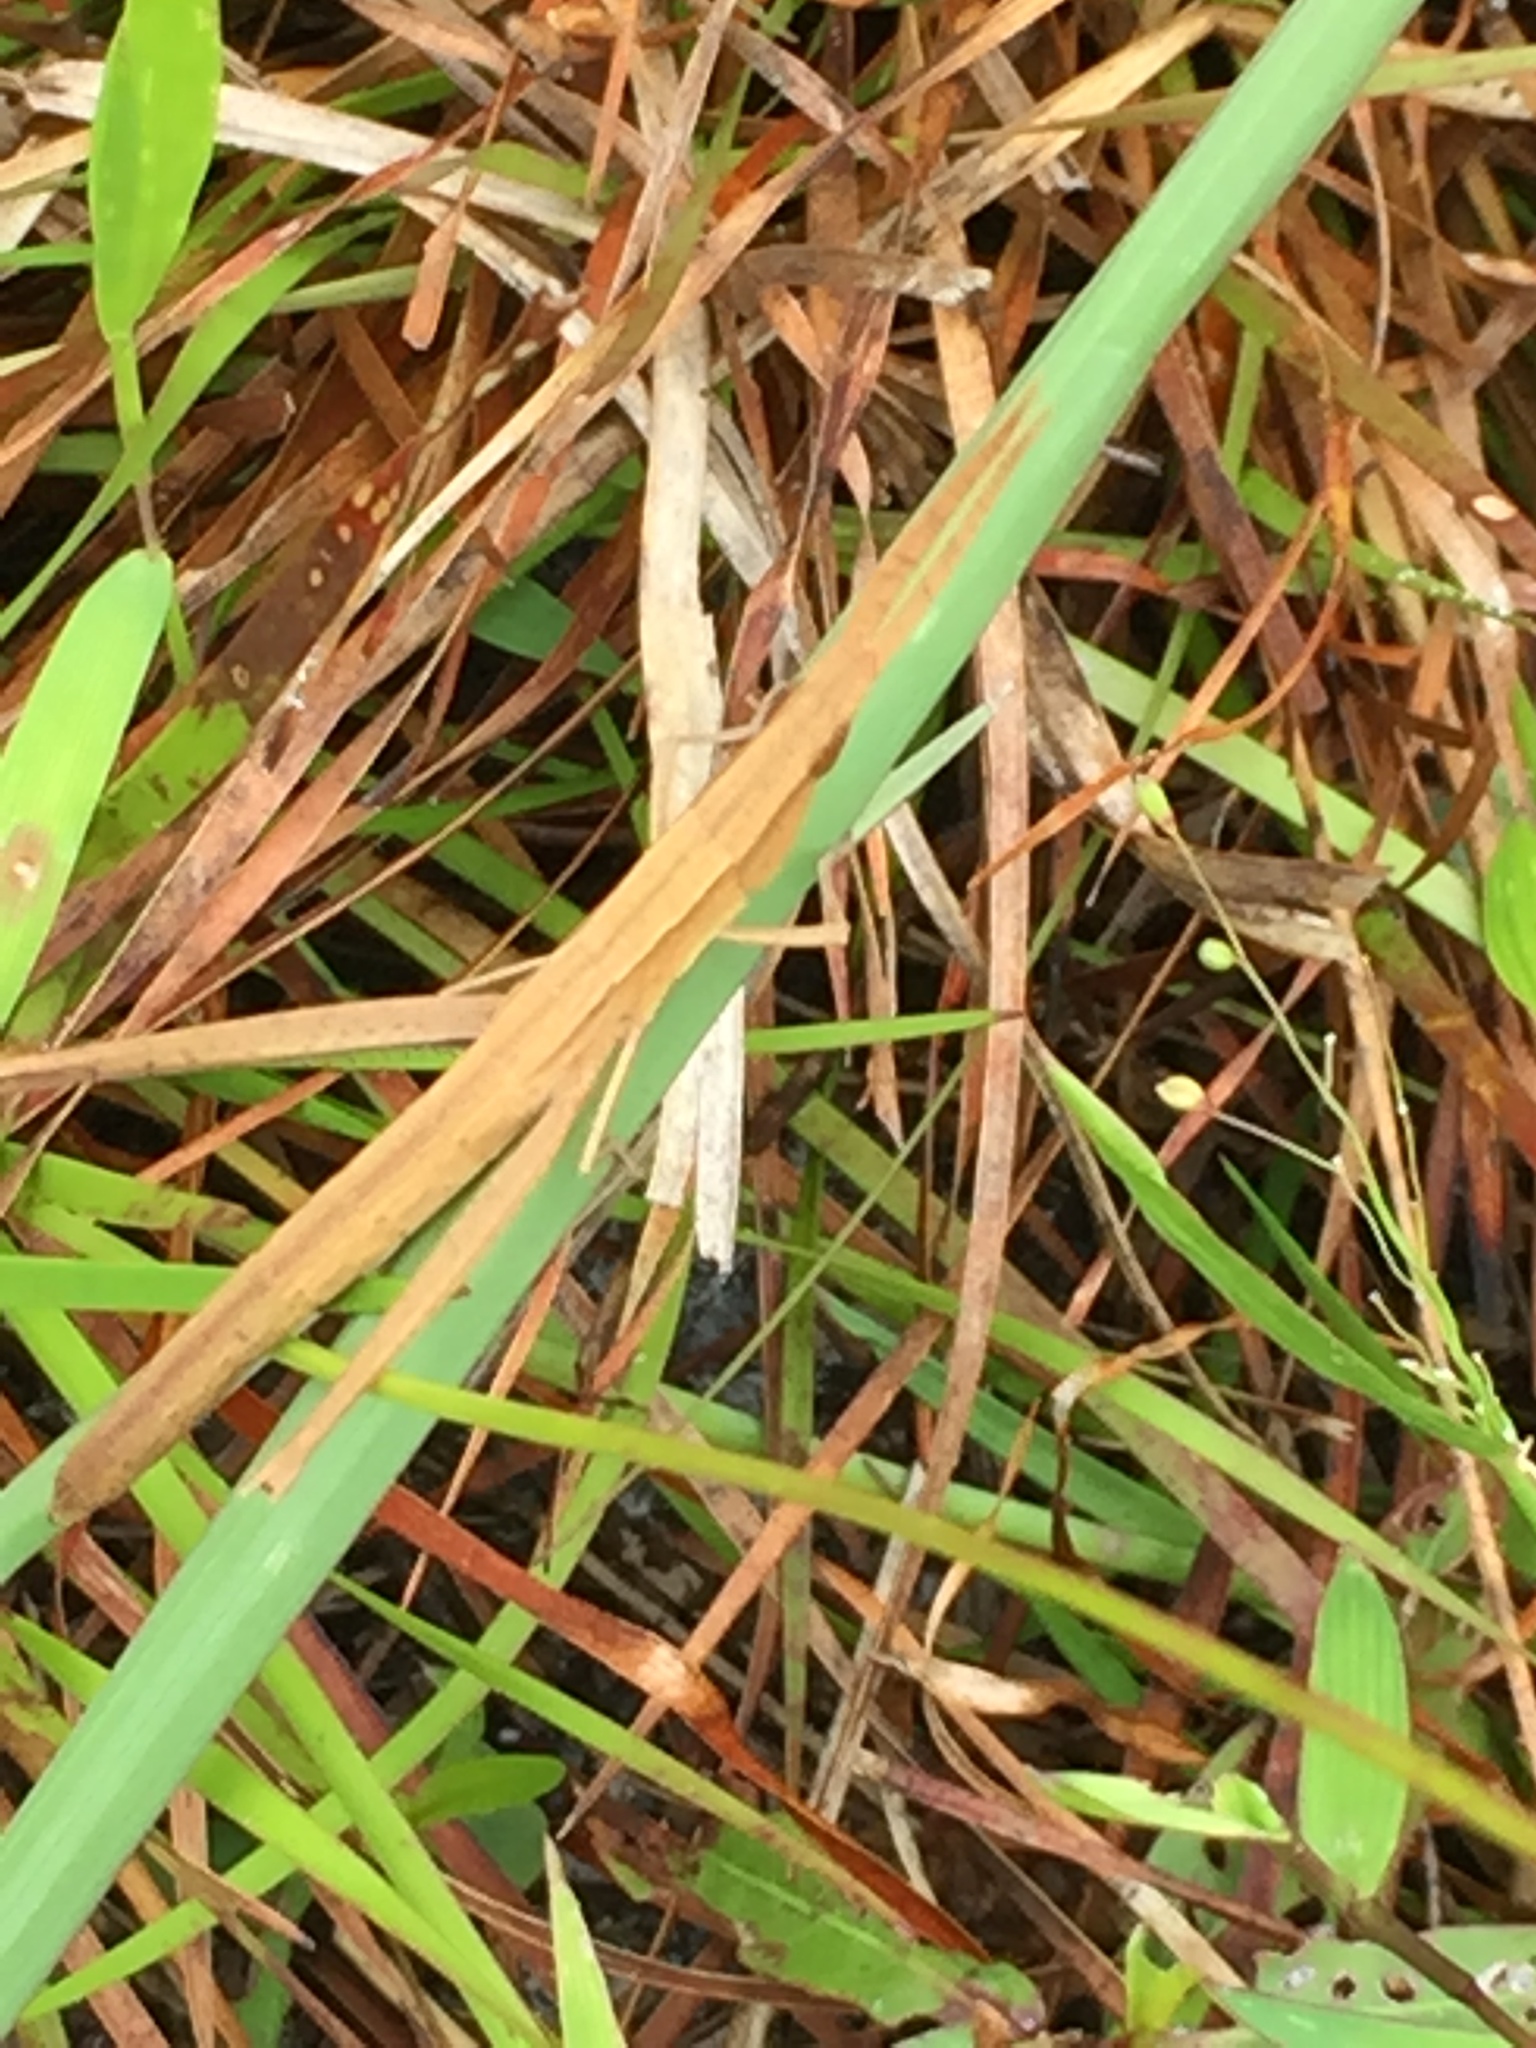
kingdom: Animalia
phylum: Arthropoda
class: Insecta
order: Orthoptera
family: Acrididae
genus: Achurum
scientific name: Achurum carinatum
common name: Long-headed toothpick grasshopper
